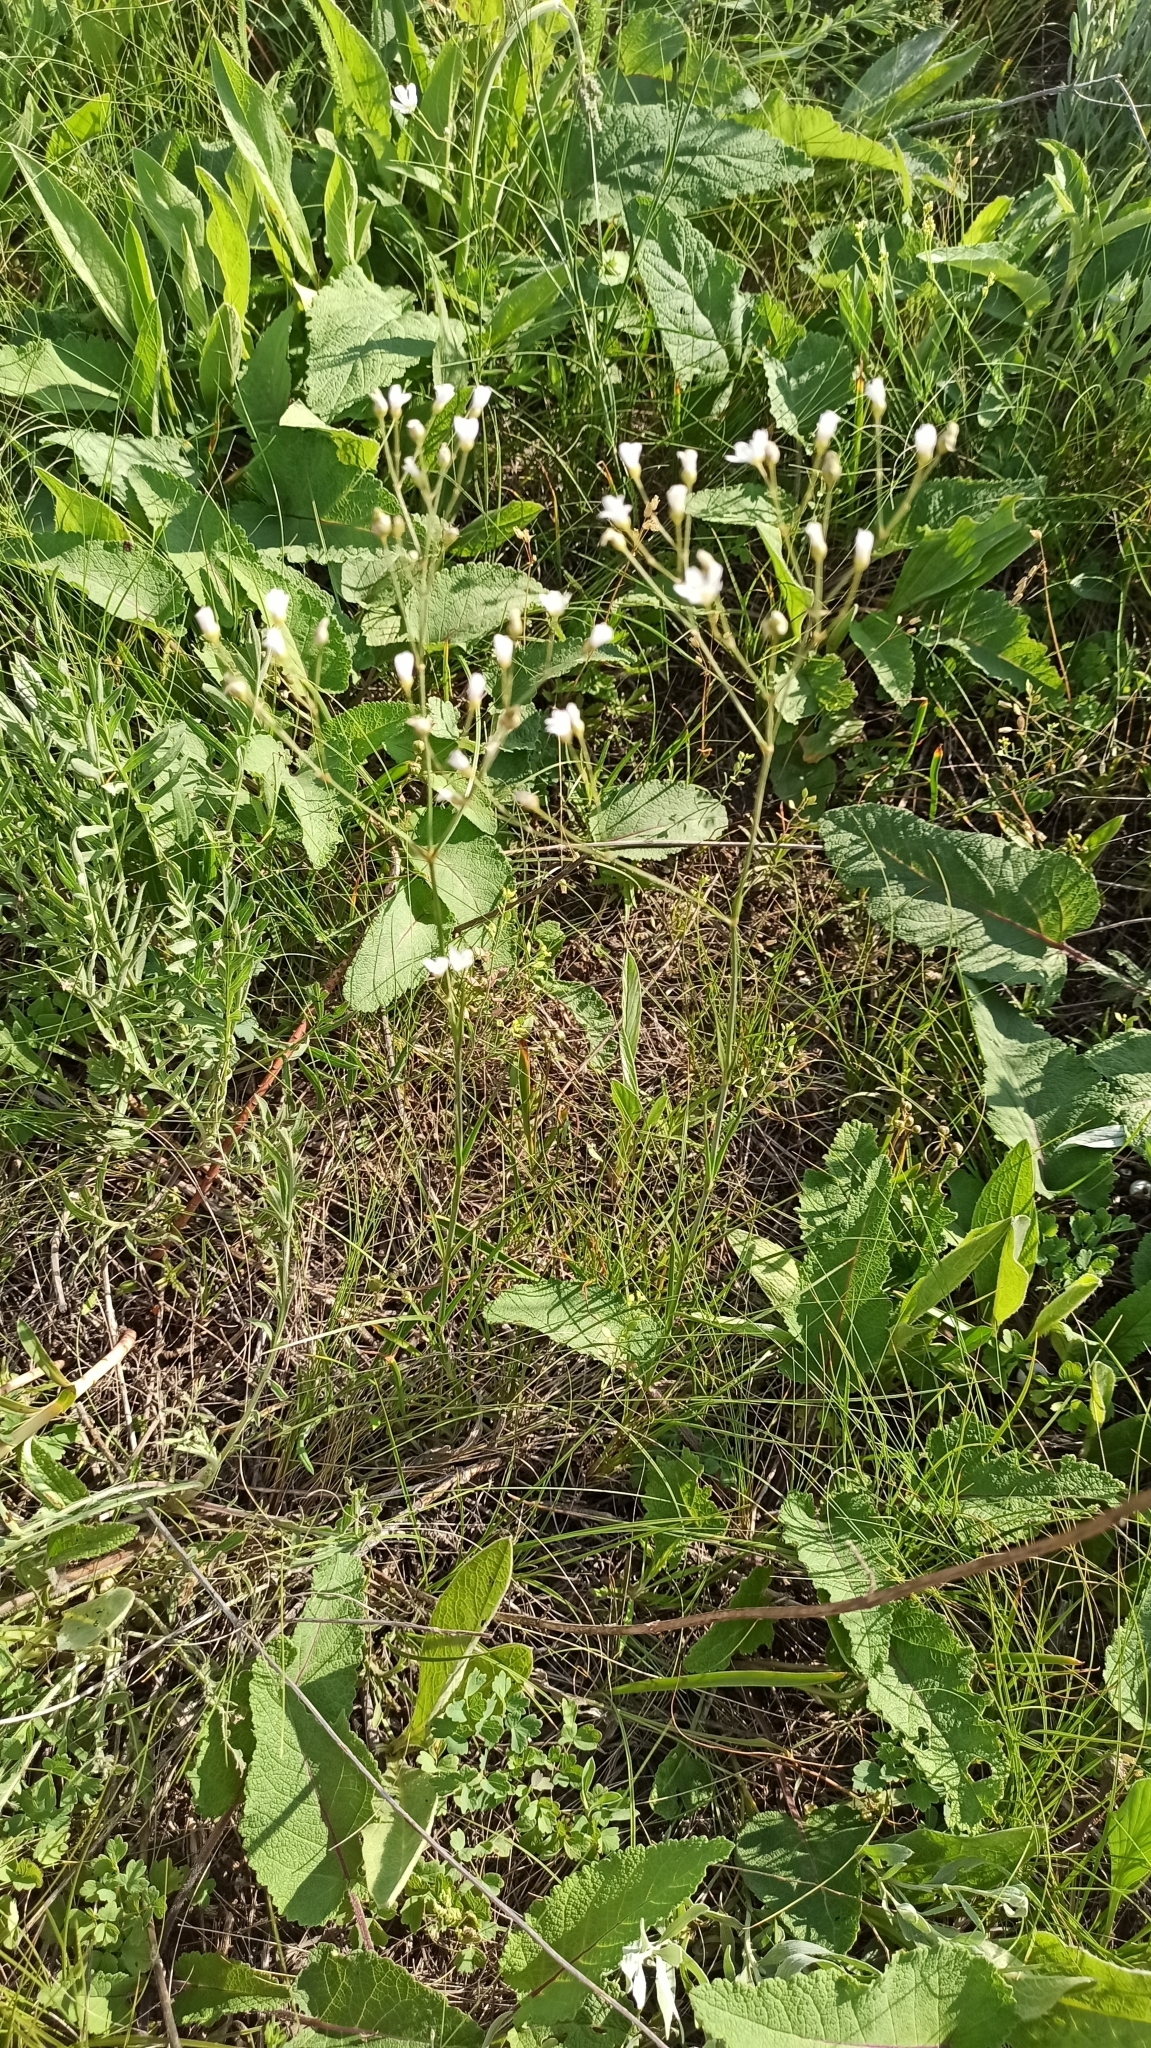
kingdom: Plantae
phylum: Tracheophyta
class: Magnoliopsida
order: Caryophyllales
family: Caryophyllaceae
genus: Eremogone
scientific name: Eremogone biebersteinii
